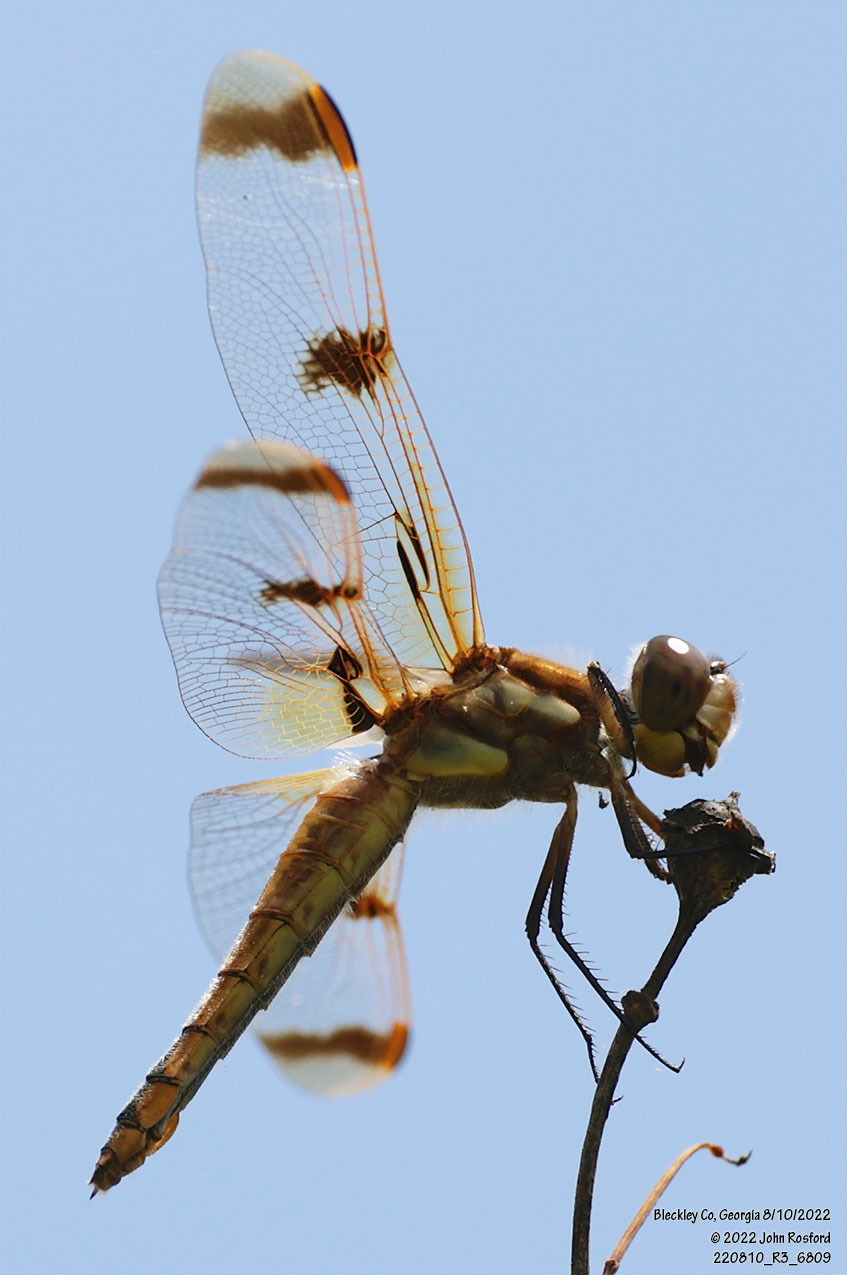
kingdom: Animalia
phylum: Arthropoda
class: Insecta
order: Odonata
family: Libellulidae
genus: Libellula
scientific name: Libellula semifasciata
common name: Painted skimmer
